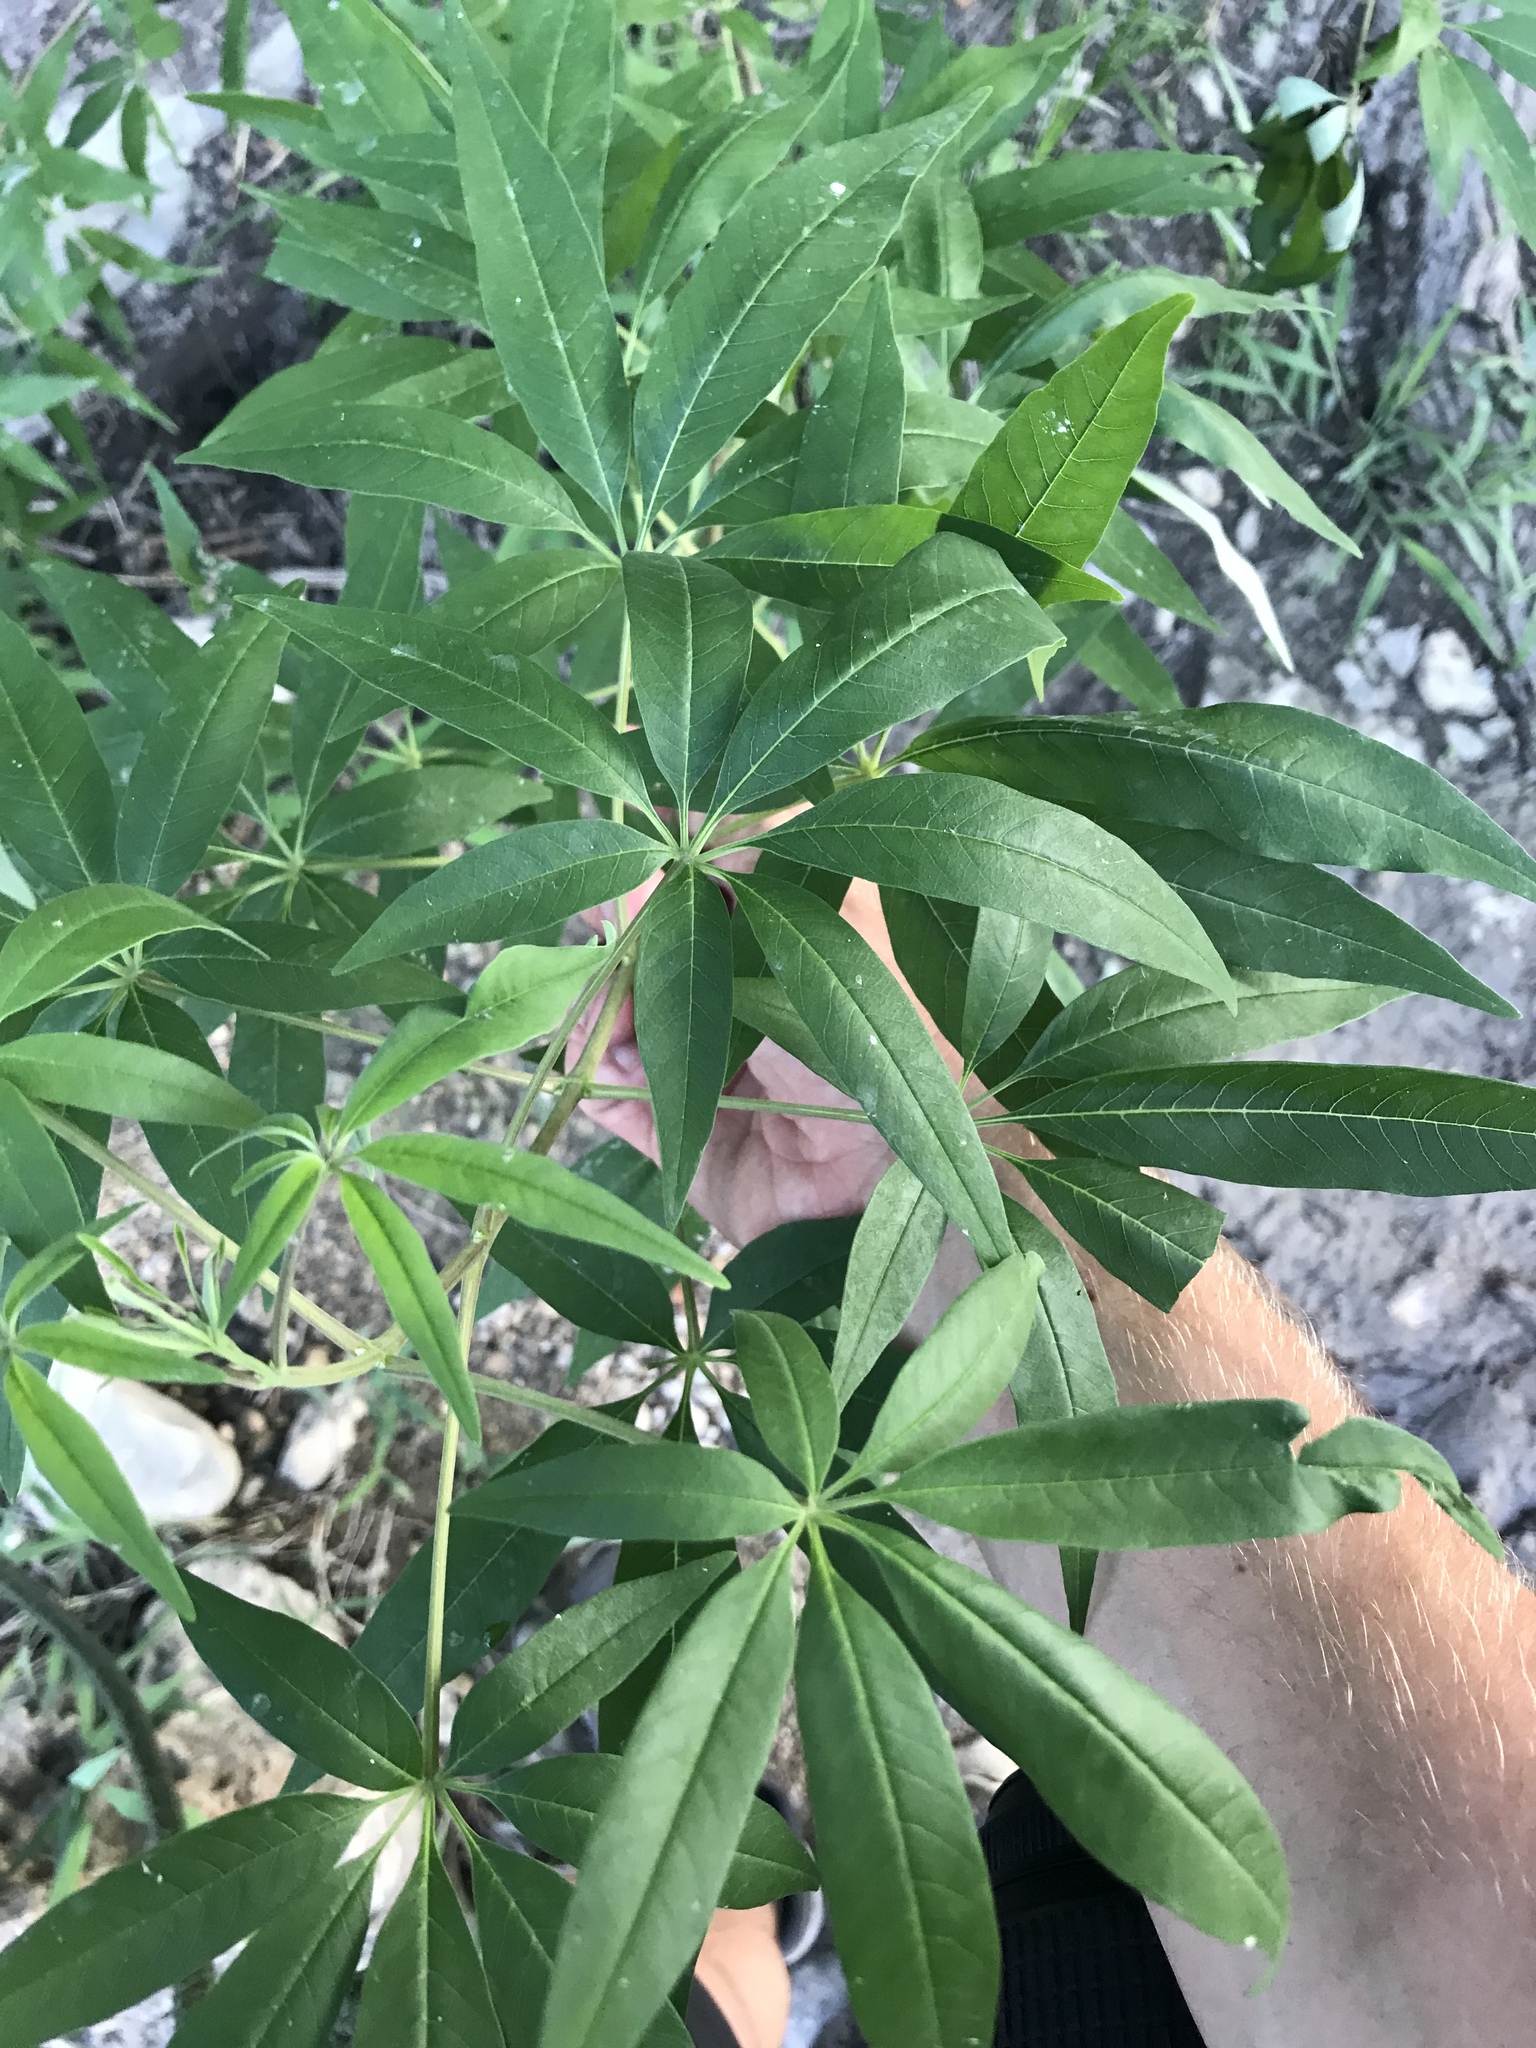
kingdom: Plantae
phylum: Tracheophyta
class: Magnoliopsida
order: Lamiales
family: Lamiaceae
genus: Vitex
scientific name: Vitex agnus-castus
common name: Chasteberry
